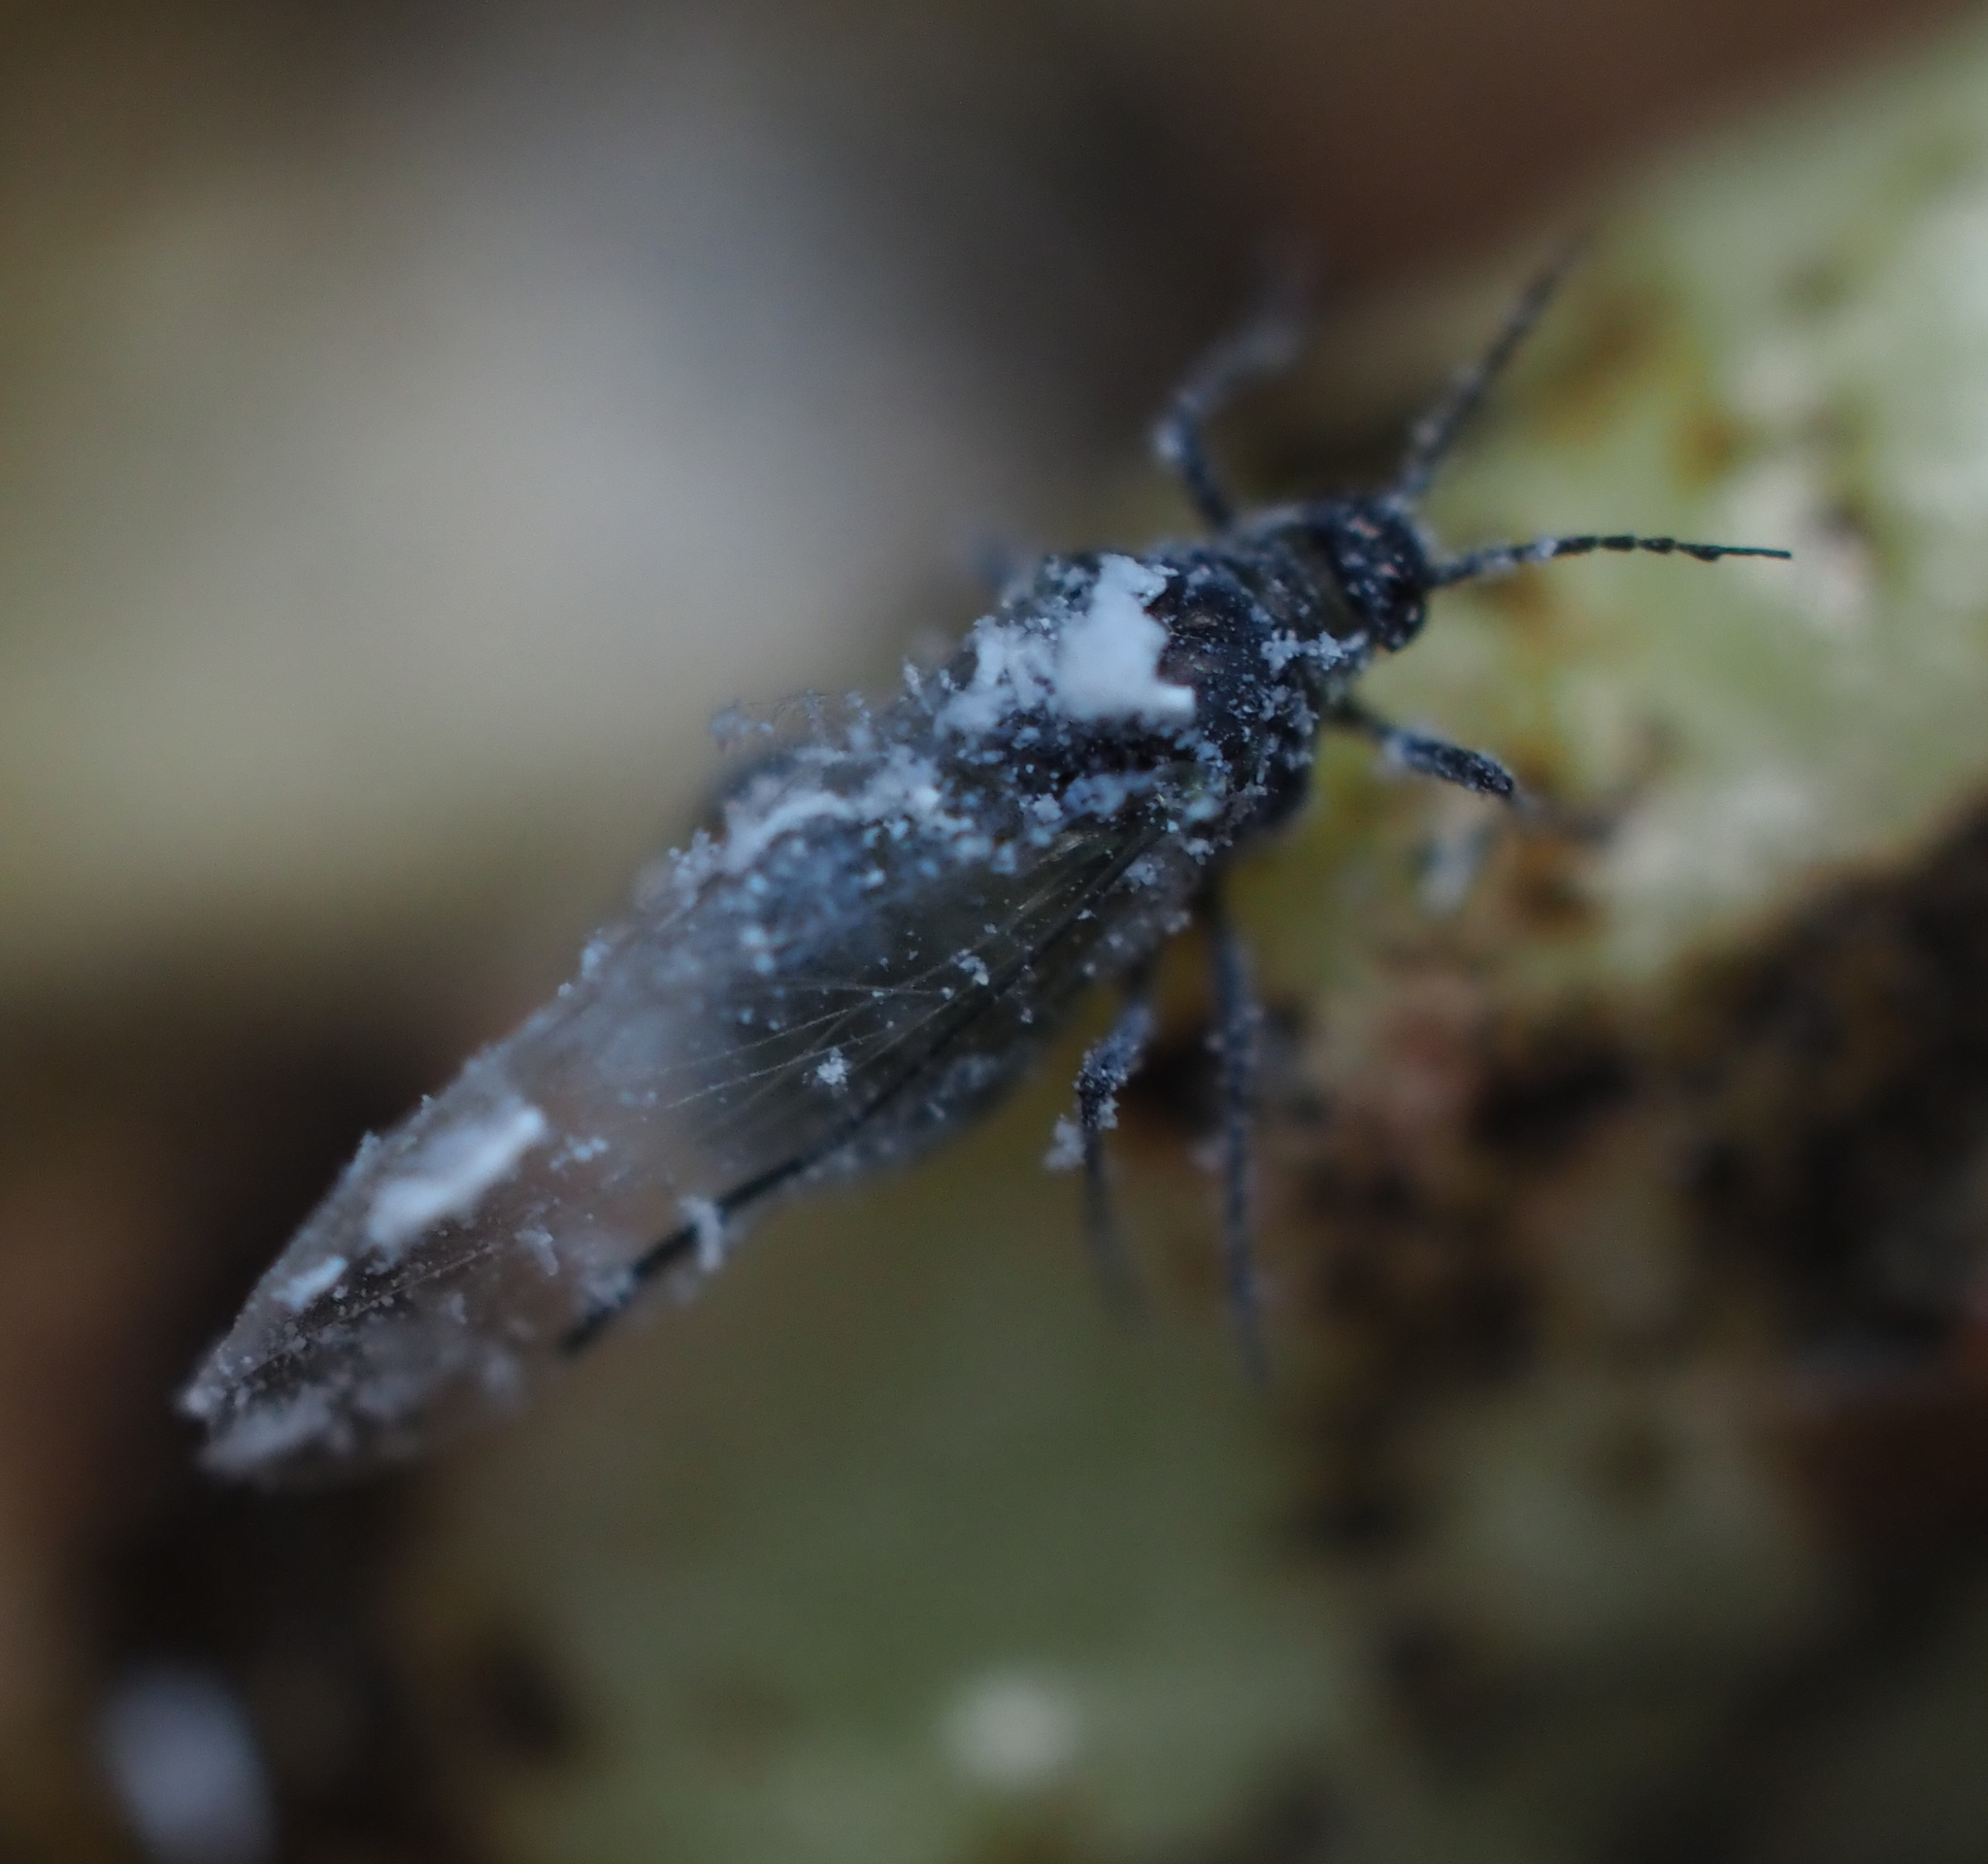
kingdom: Animalia
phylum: Arthropoda
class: Insecta
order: Hemiptera
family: Aphididae
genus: Mordwilkoja
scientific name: Mordwilkoja vagabunda
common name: Poplar vagabond aphid
